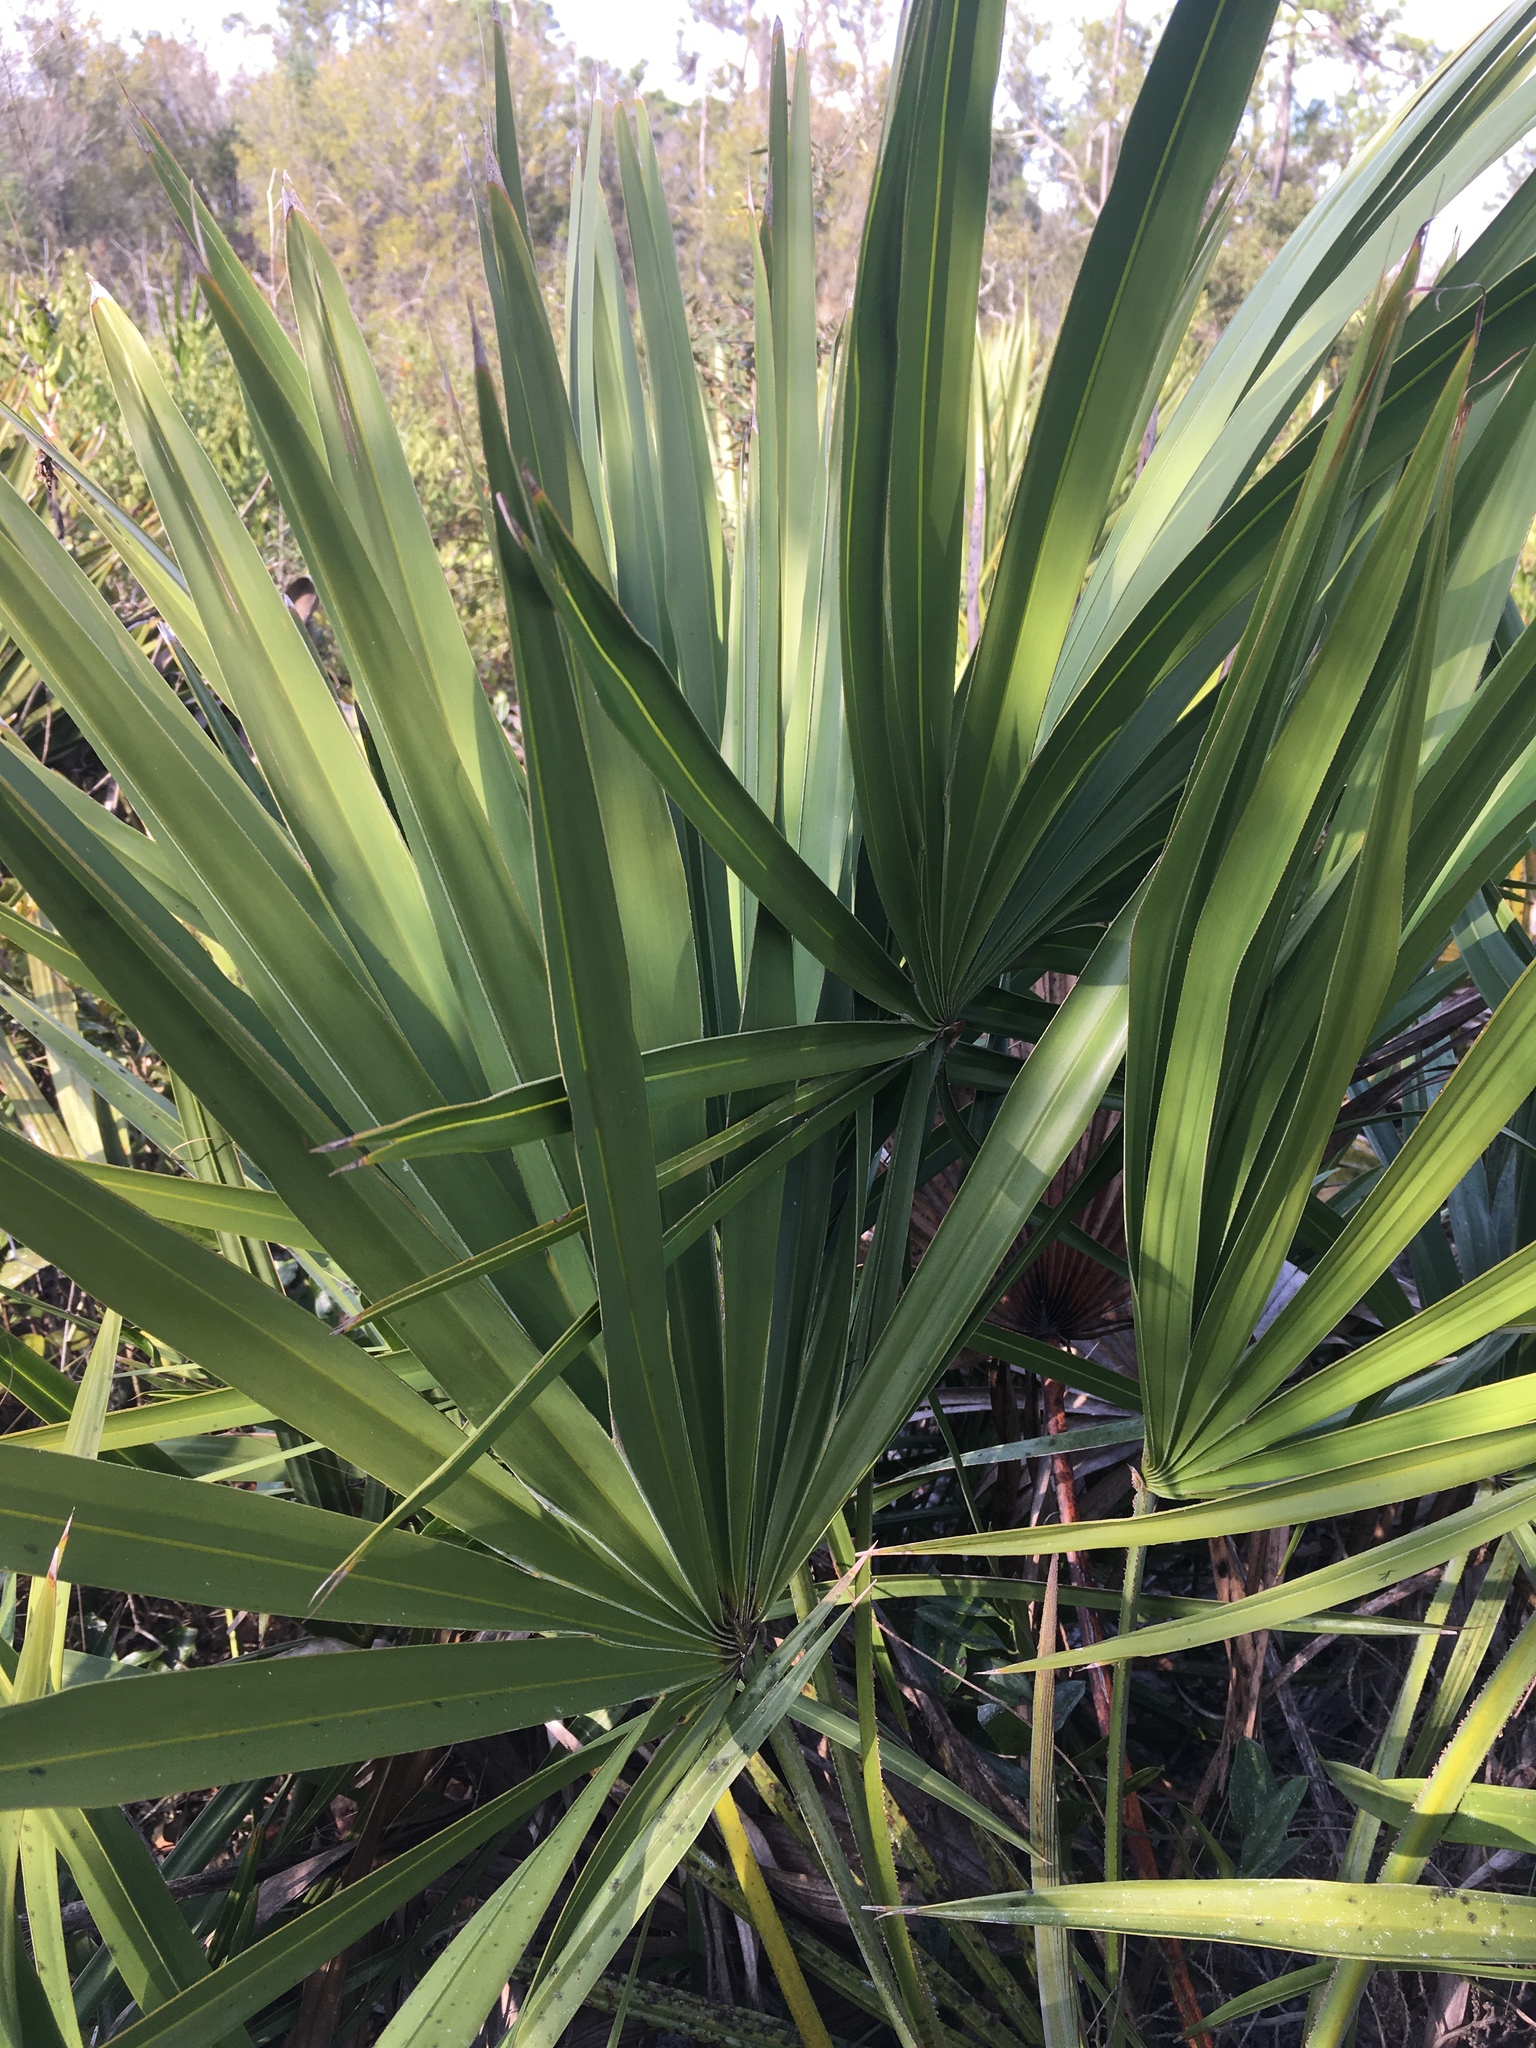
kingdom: Plantae
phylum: Tracheophyta
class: Liliopsida
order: Arecales
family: Arecaceae
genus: Serenoa
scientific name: Serenoa repens
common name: Saw-palmetto
